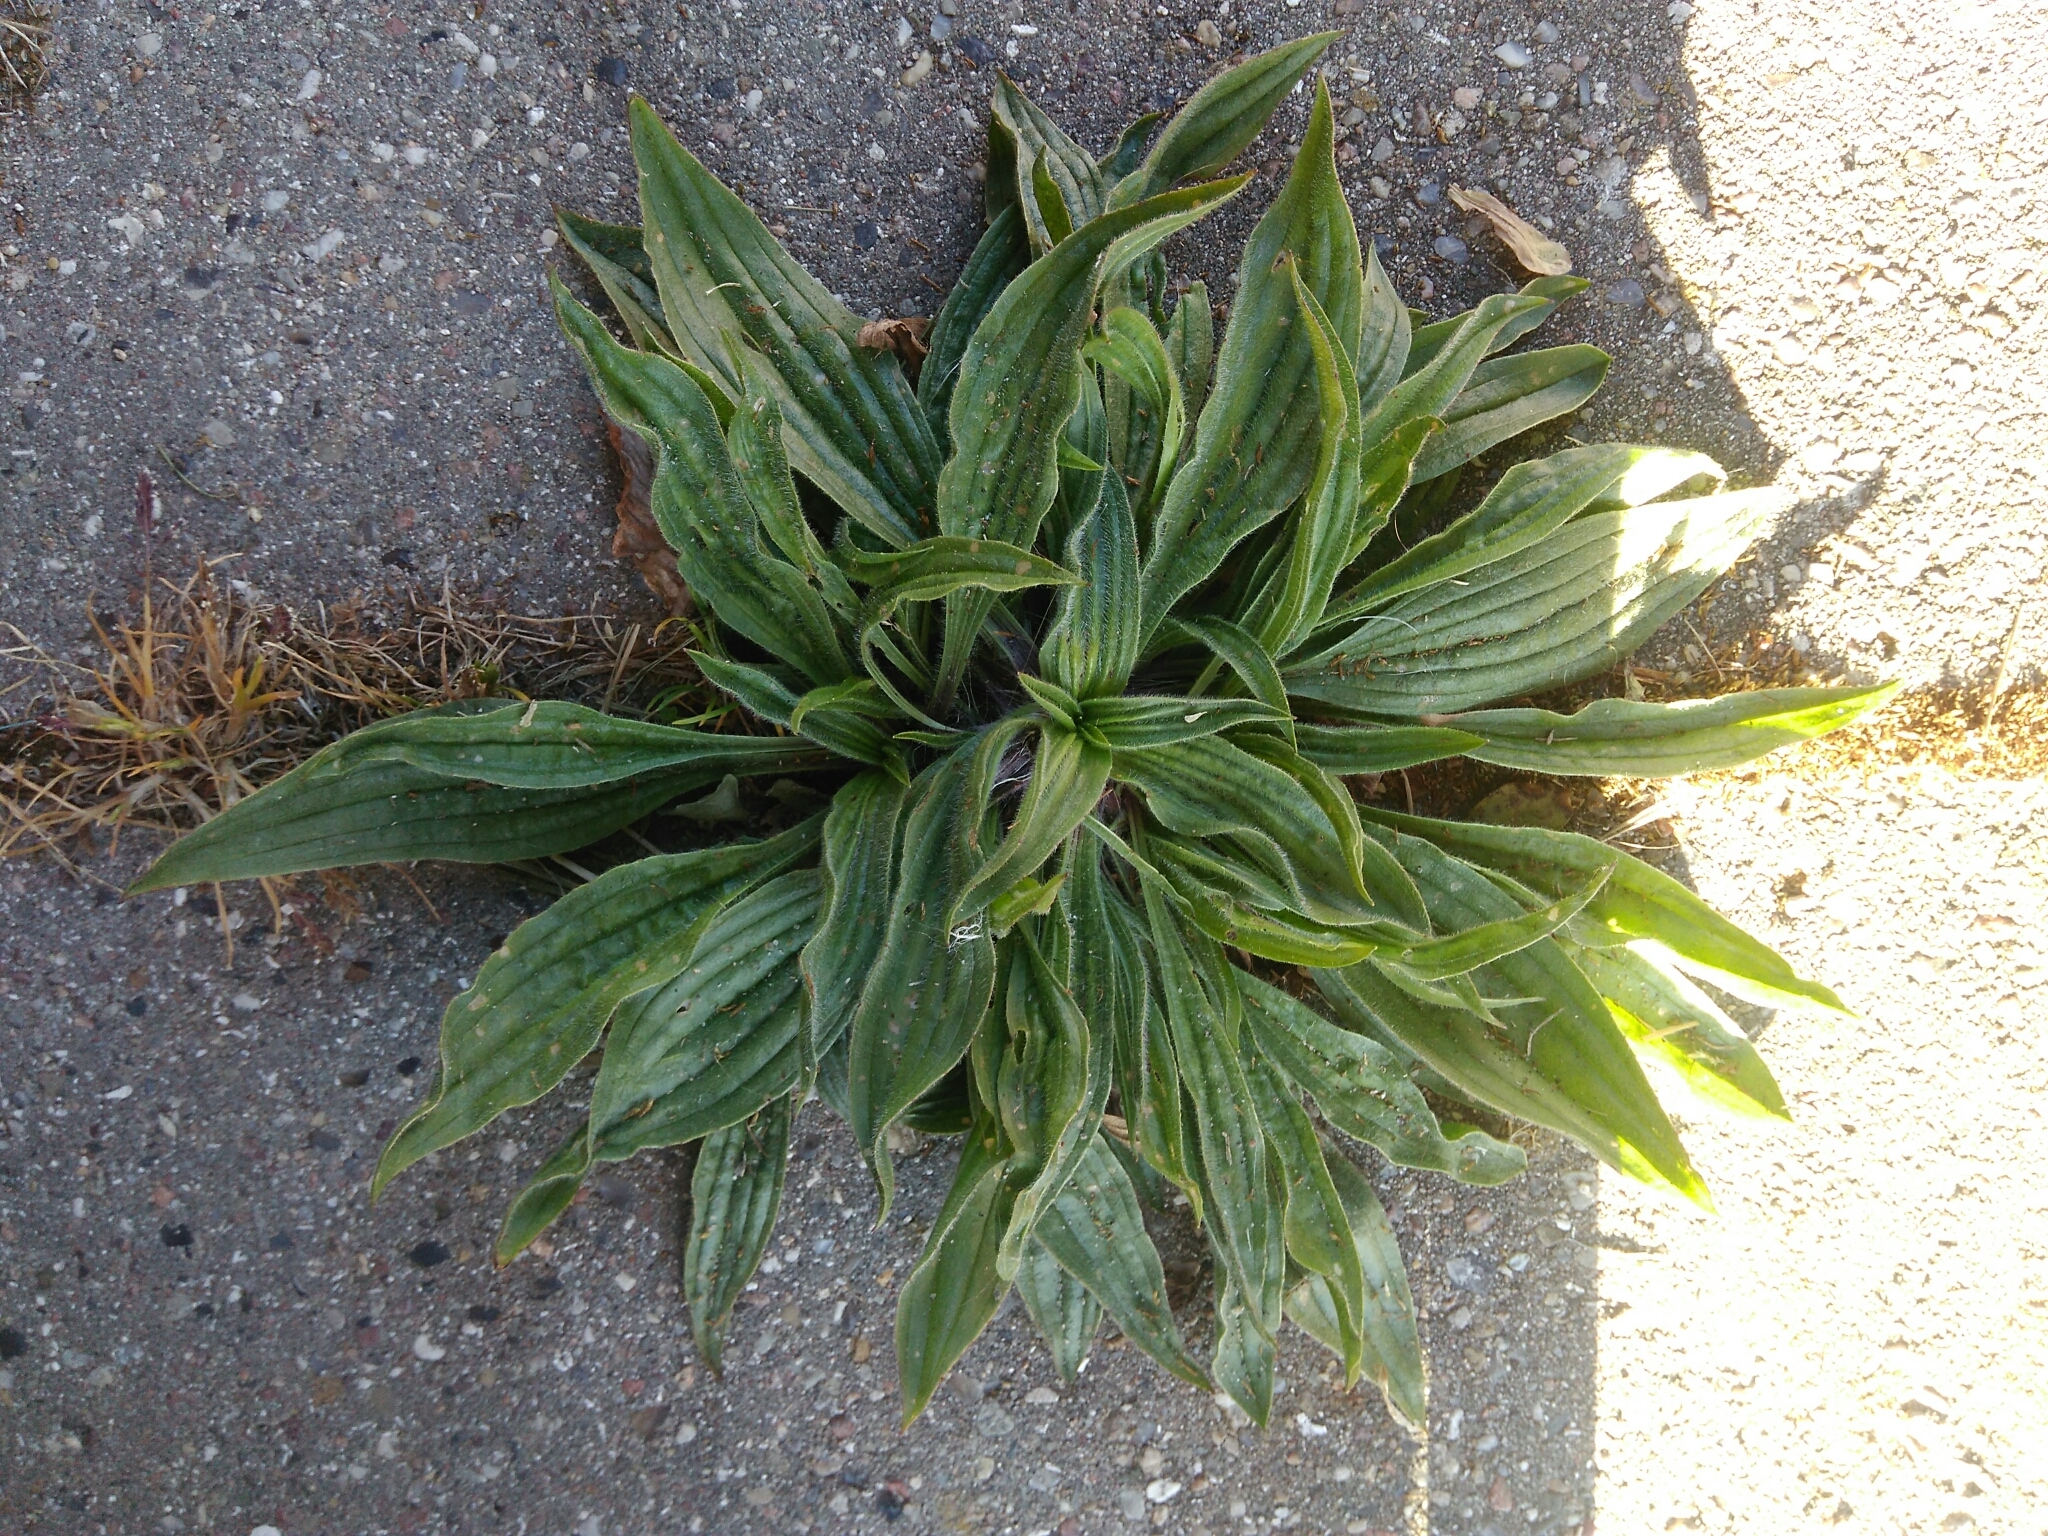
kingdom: Plantae
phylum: Tracheophyta
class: Magnoliopsida
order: Lamiales
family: Plantaginaceae
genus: Plantago
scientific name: Plantago lanceolata
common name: Ribwort plantain
